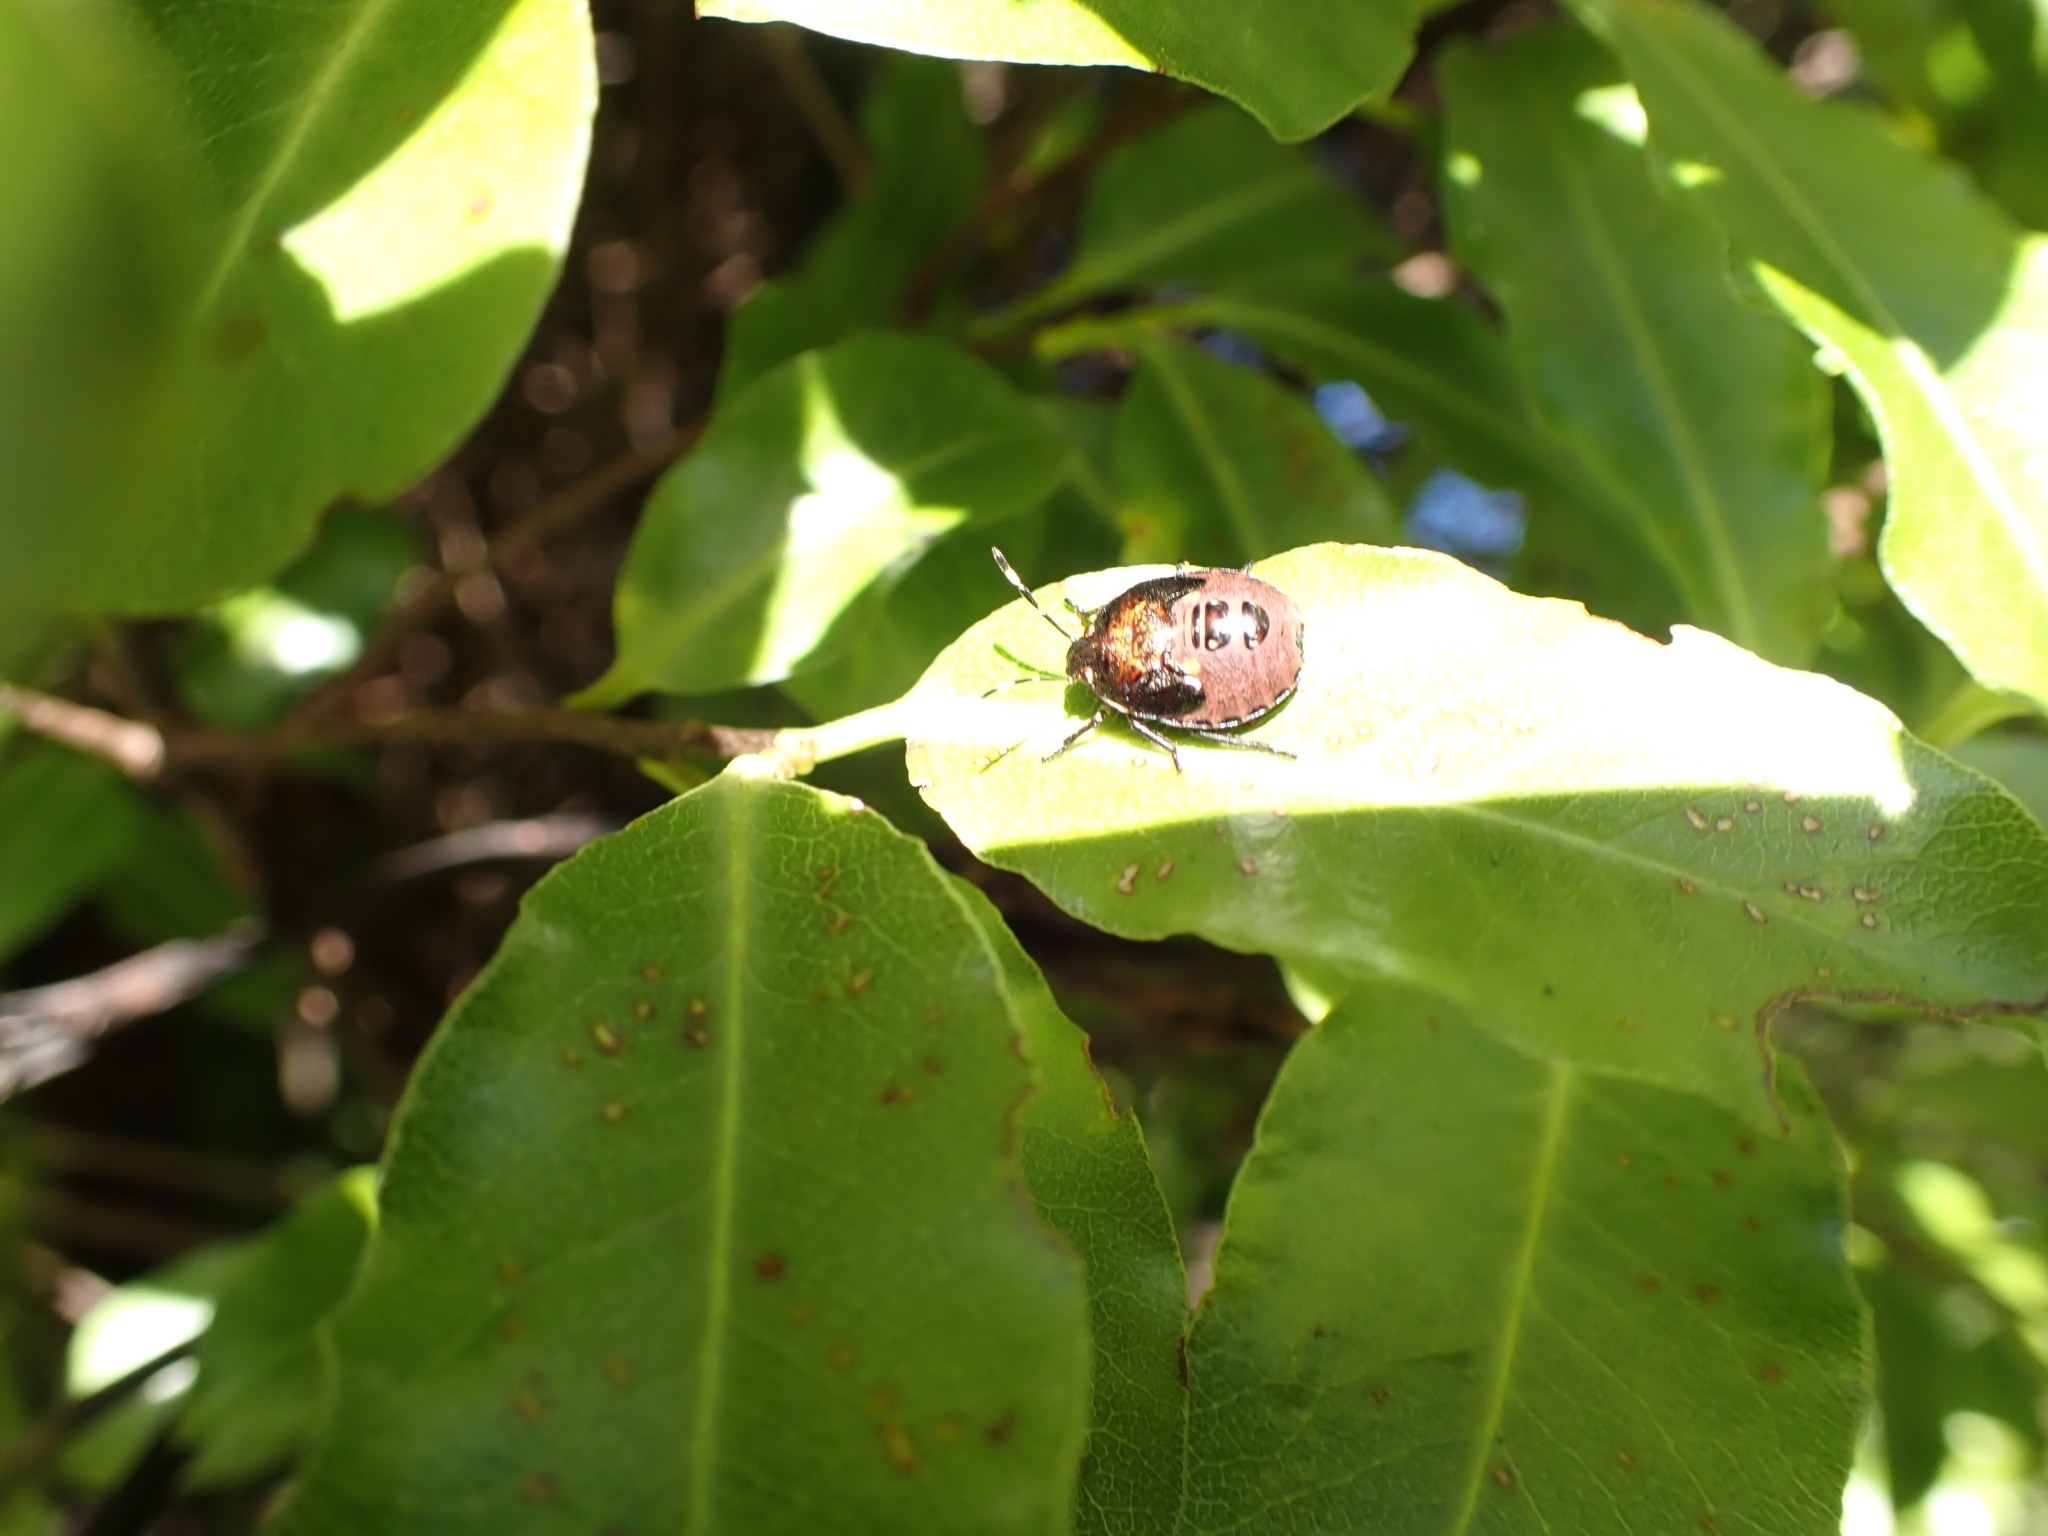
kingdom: Animalia
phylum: Arthropoda
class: Insecta
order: Hemiptera
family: Pentatomidae
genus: Monteithiella
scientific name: Monteithiella
